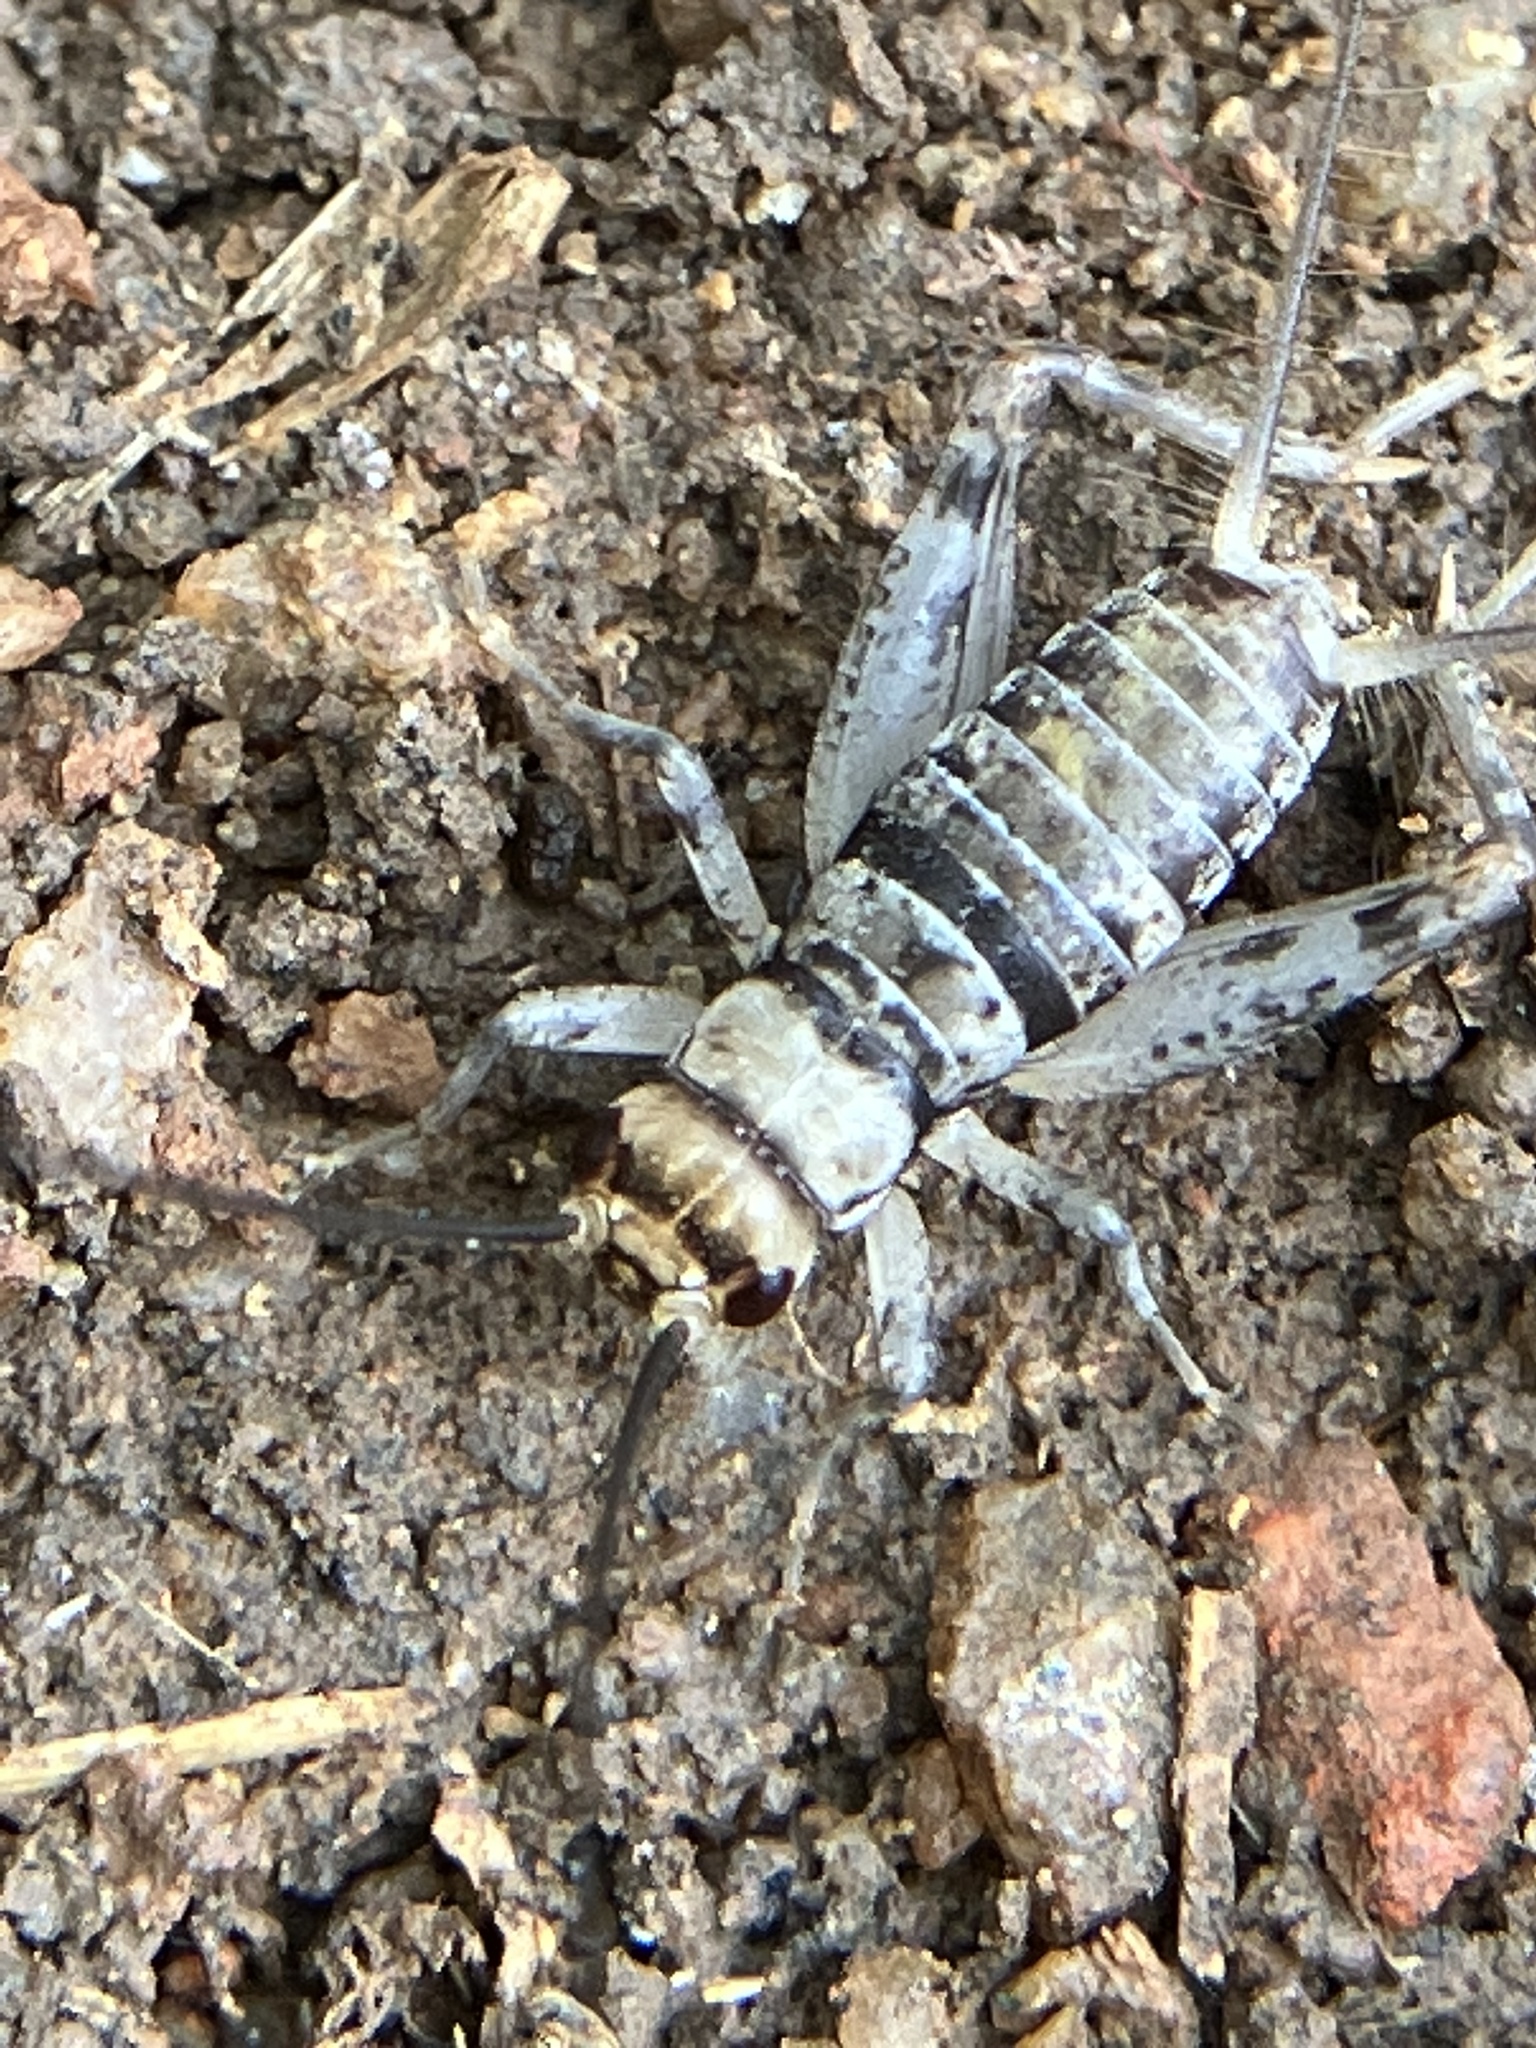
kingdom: Animalia
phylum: Arthropoda
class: Insecta
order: Orthoptera
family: Gryllidae
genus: Gryllodes
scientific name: Gryllodes sigillatus
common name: Tropical house cricket
